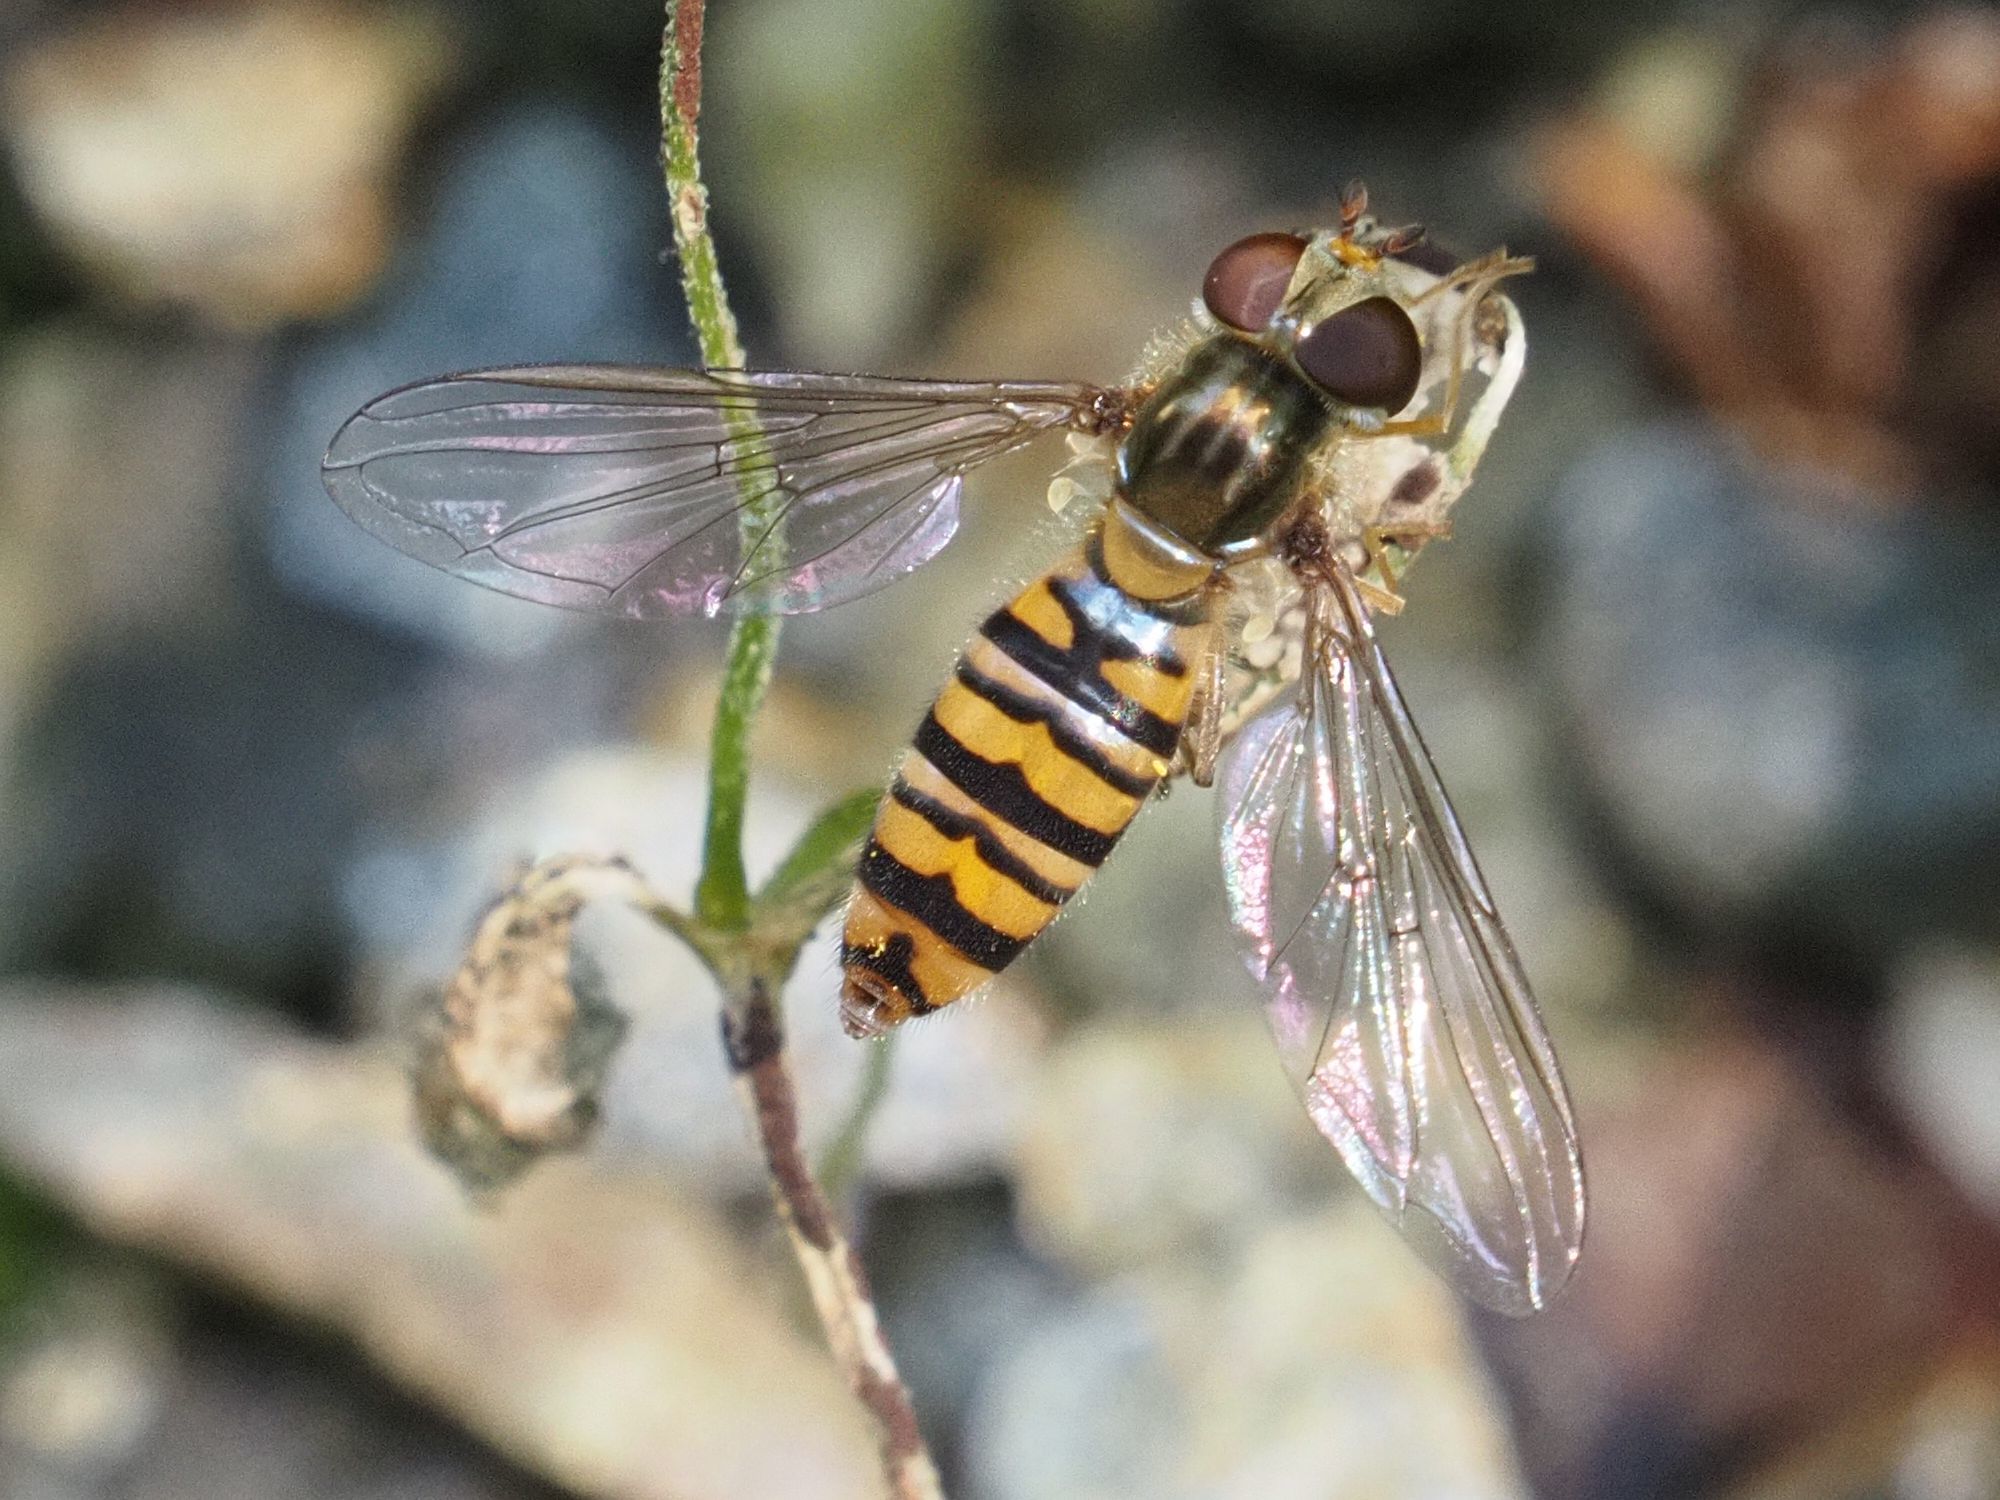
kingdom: Animalia
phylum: Arthropoda
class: Insecta
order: Diptera
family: Syrphidae
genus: Episyrphus
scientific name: Episyrphus balteatus
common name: Marmalade hoverfly
